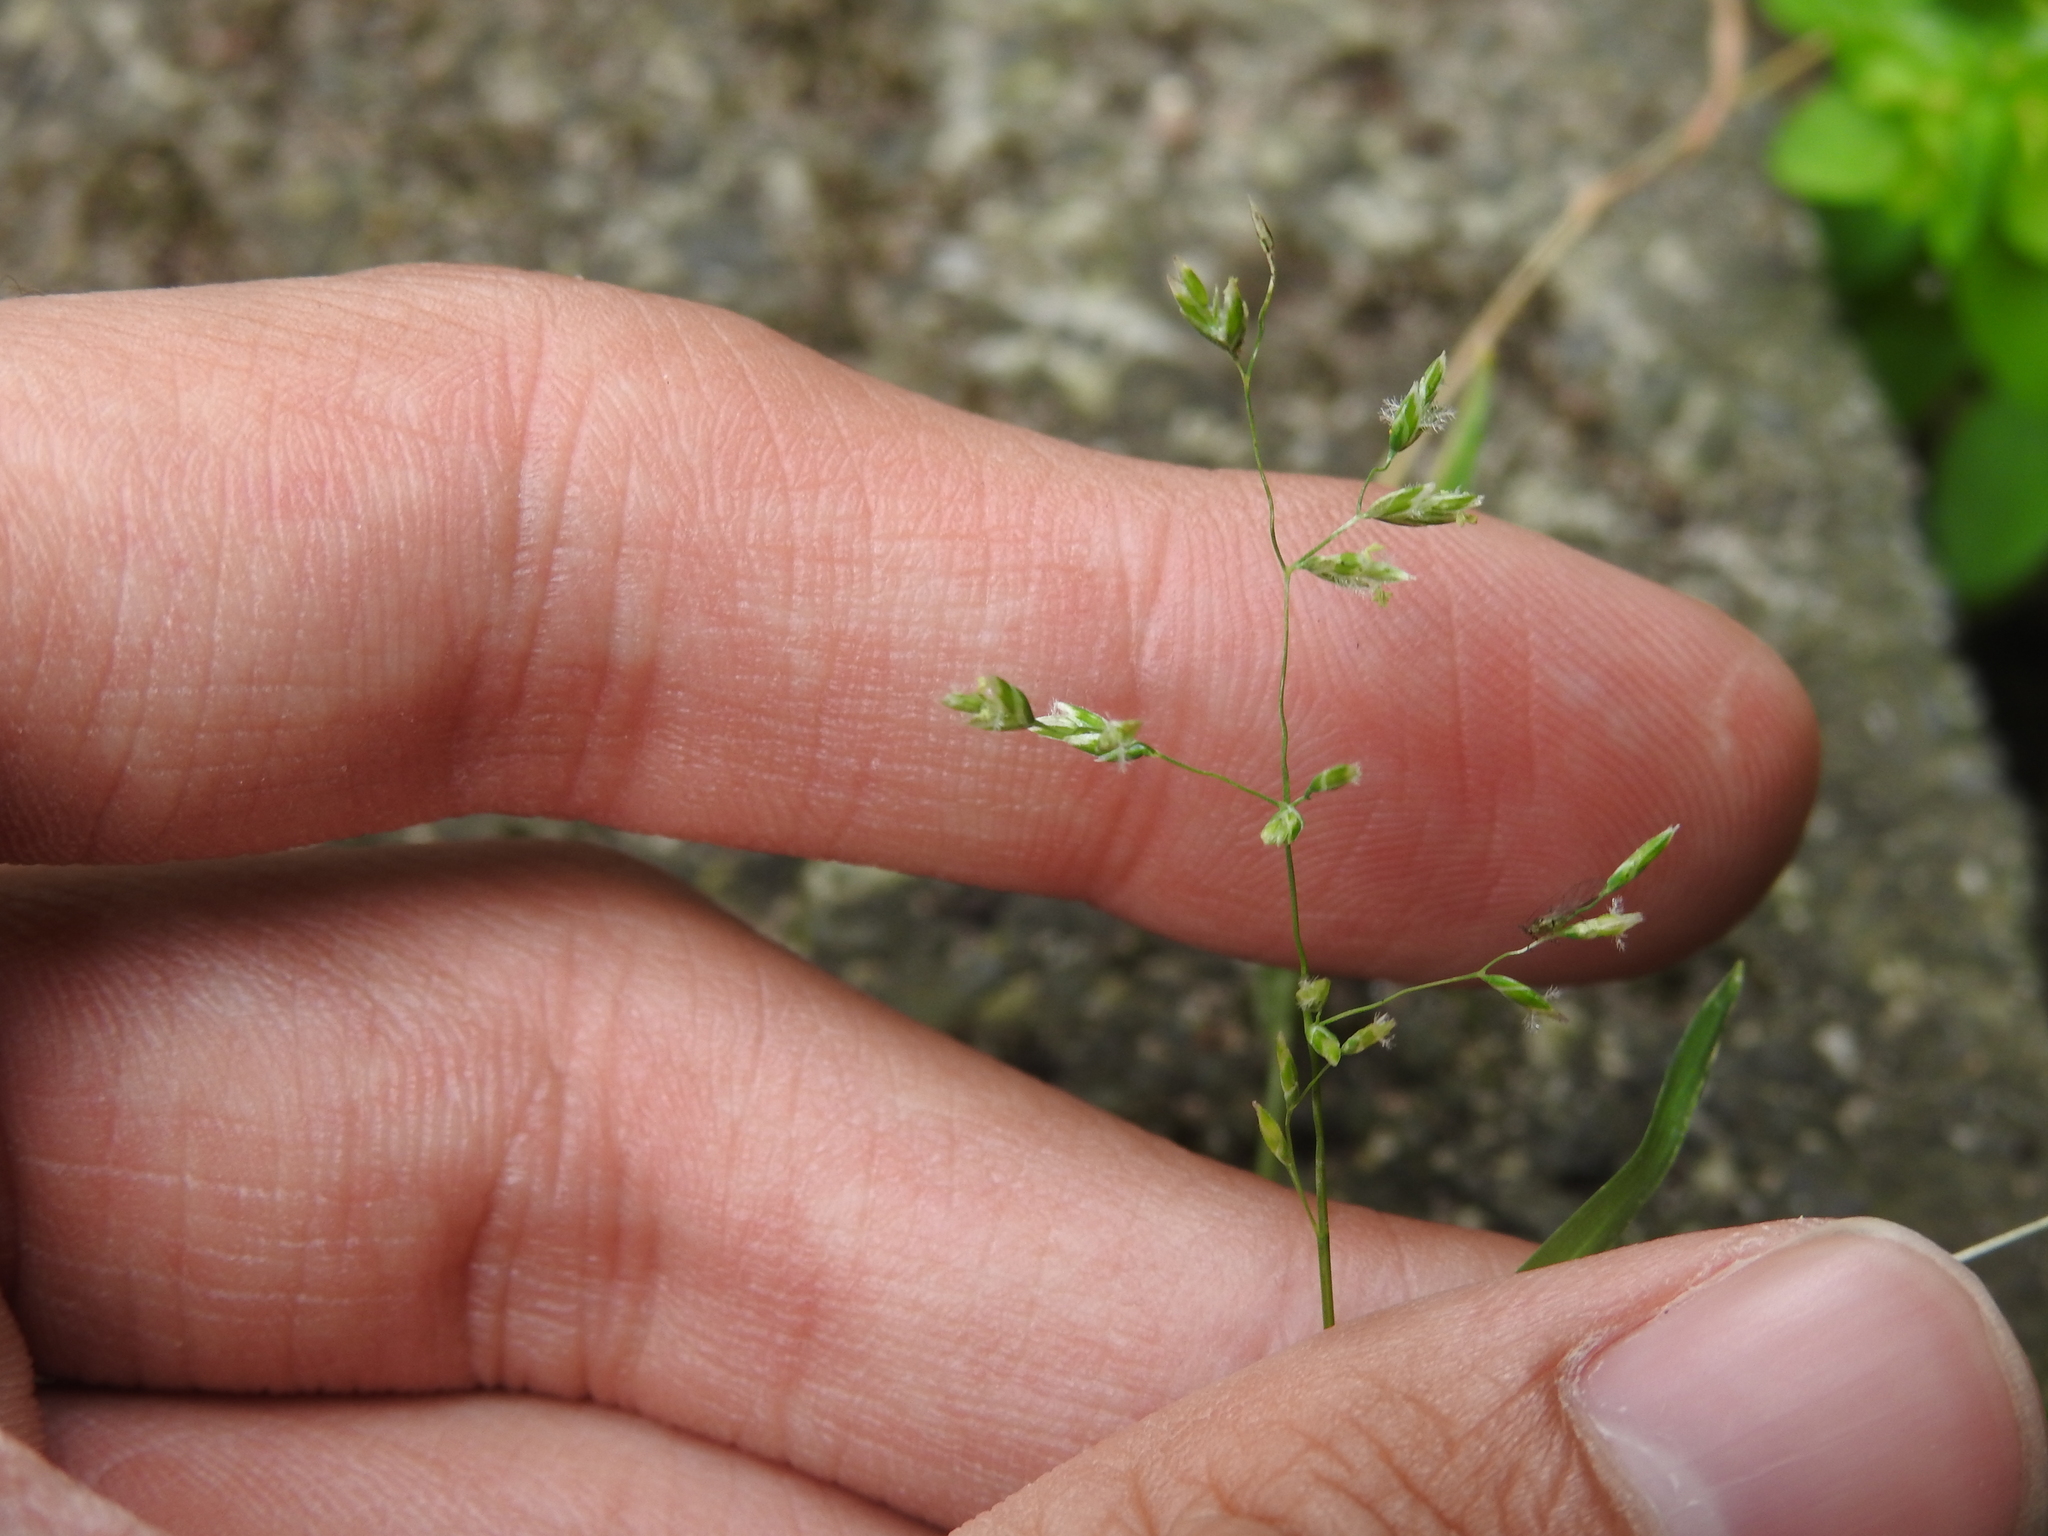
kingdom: Plantae
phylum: Tracheophyta
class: Liliopsida
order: Poales
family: Poaceae
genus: Poa
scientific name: Poa annua
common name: Annual bluegrass
